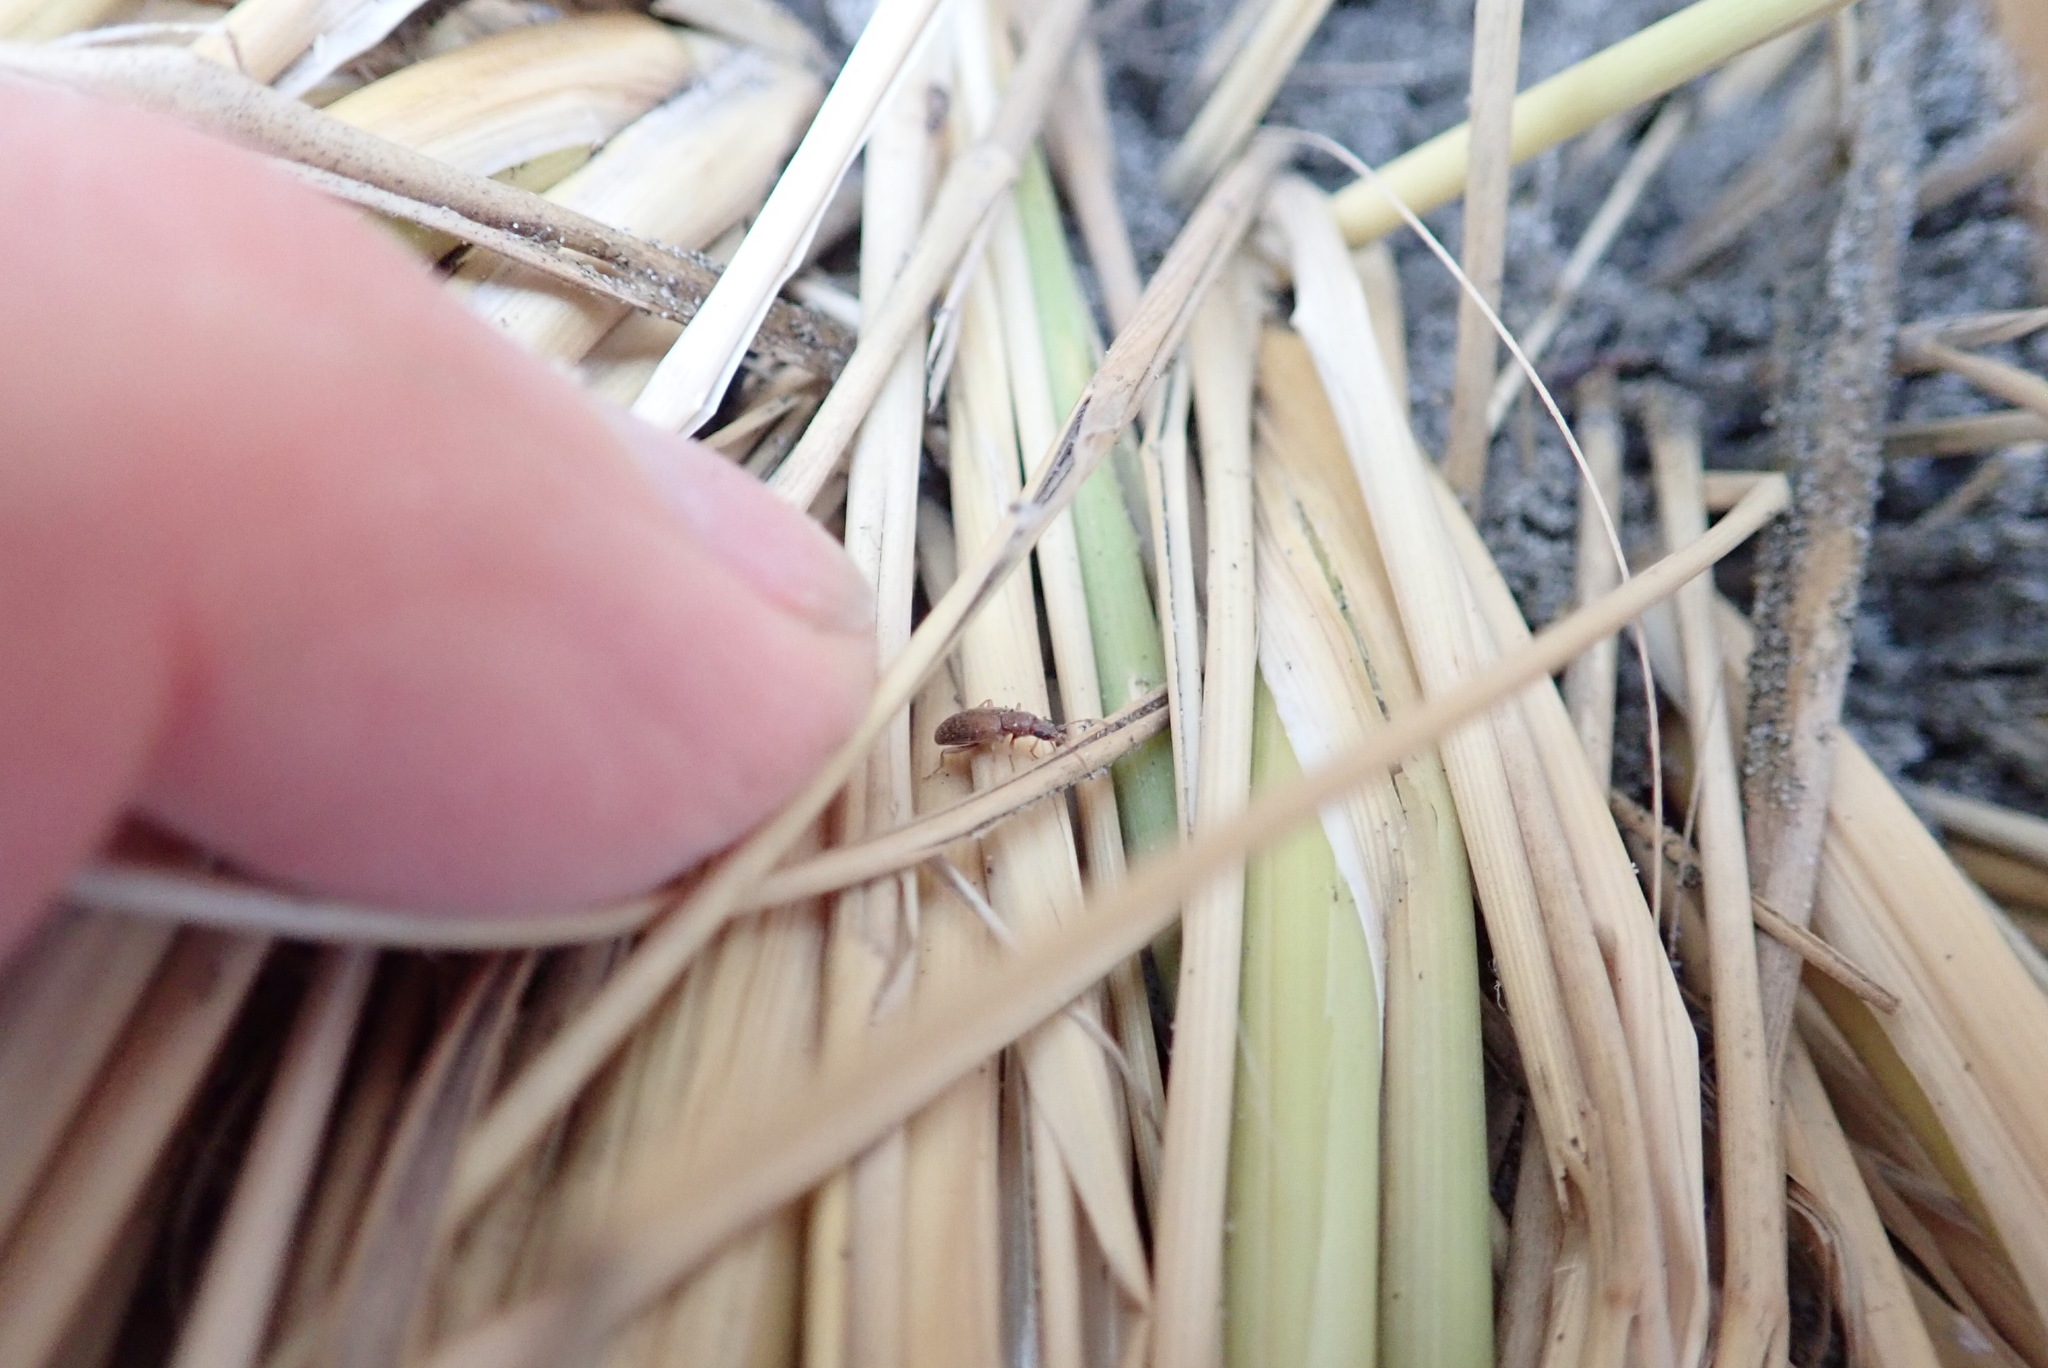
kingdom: Animalia
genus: Lagrioda
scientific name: Lagrioda brounii
